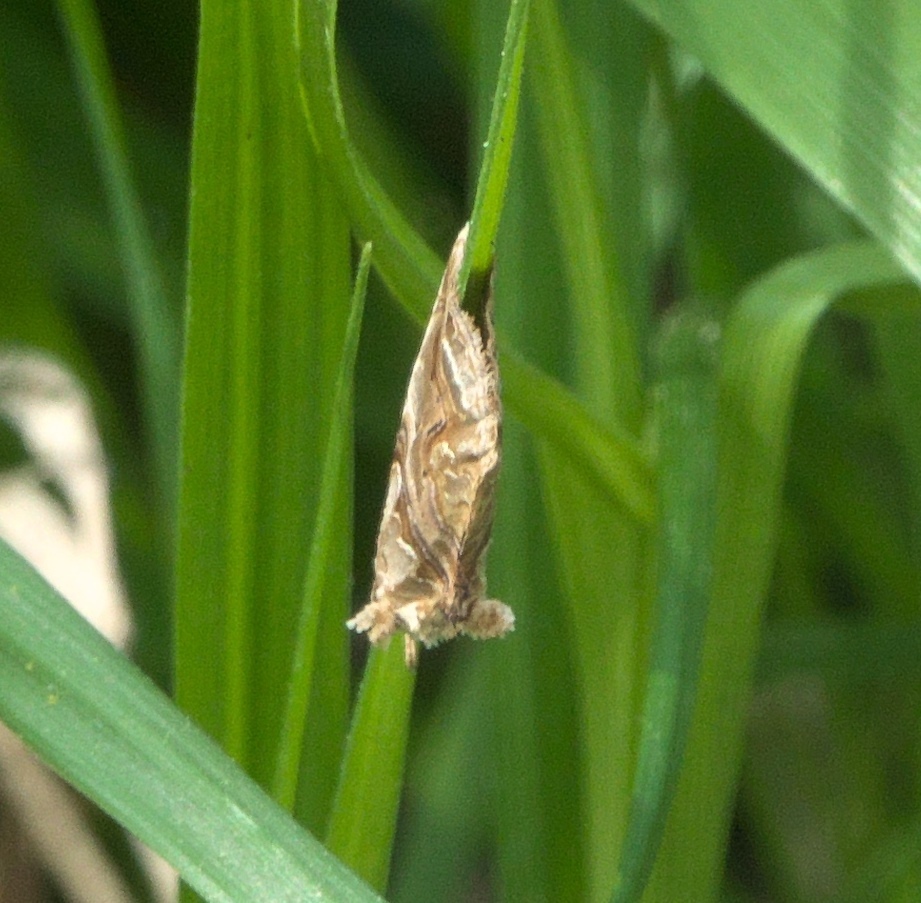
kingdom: Animalia
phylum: Arthropoda
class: Insecta
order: Lepidoptera
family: Erebidae
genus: Plusiodonta
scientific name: Plusiodonta compressipalpis
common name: Moonseed moth
